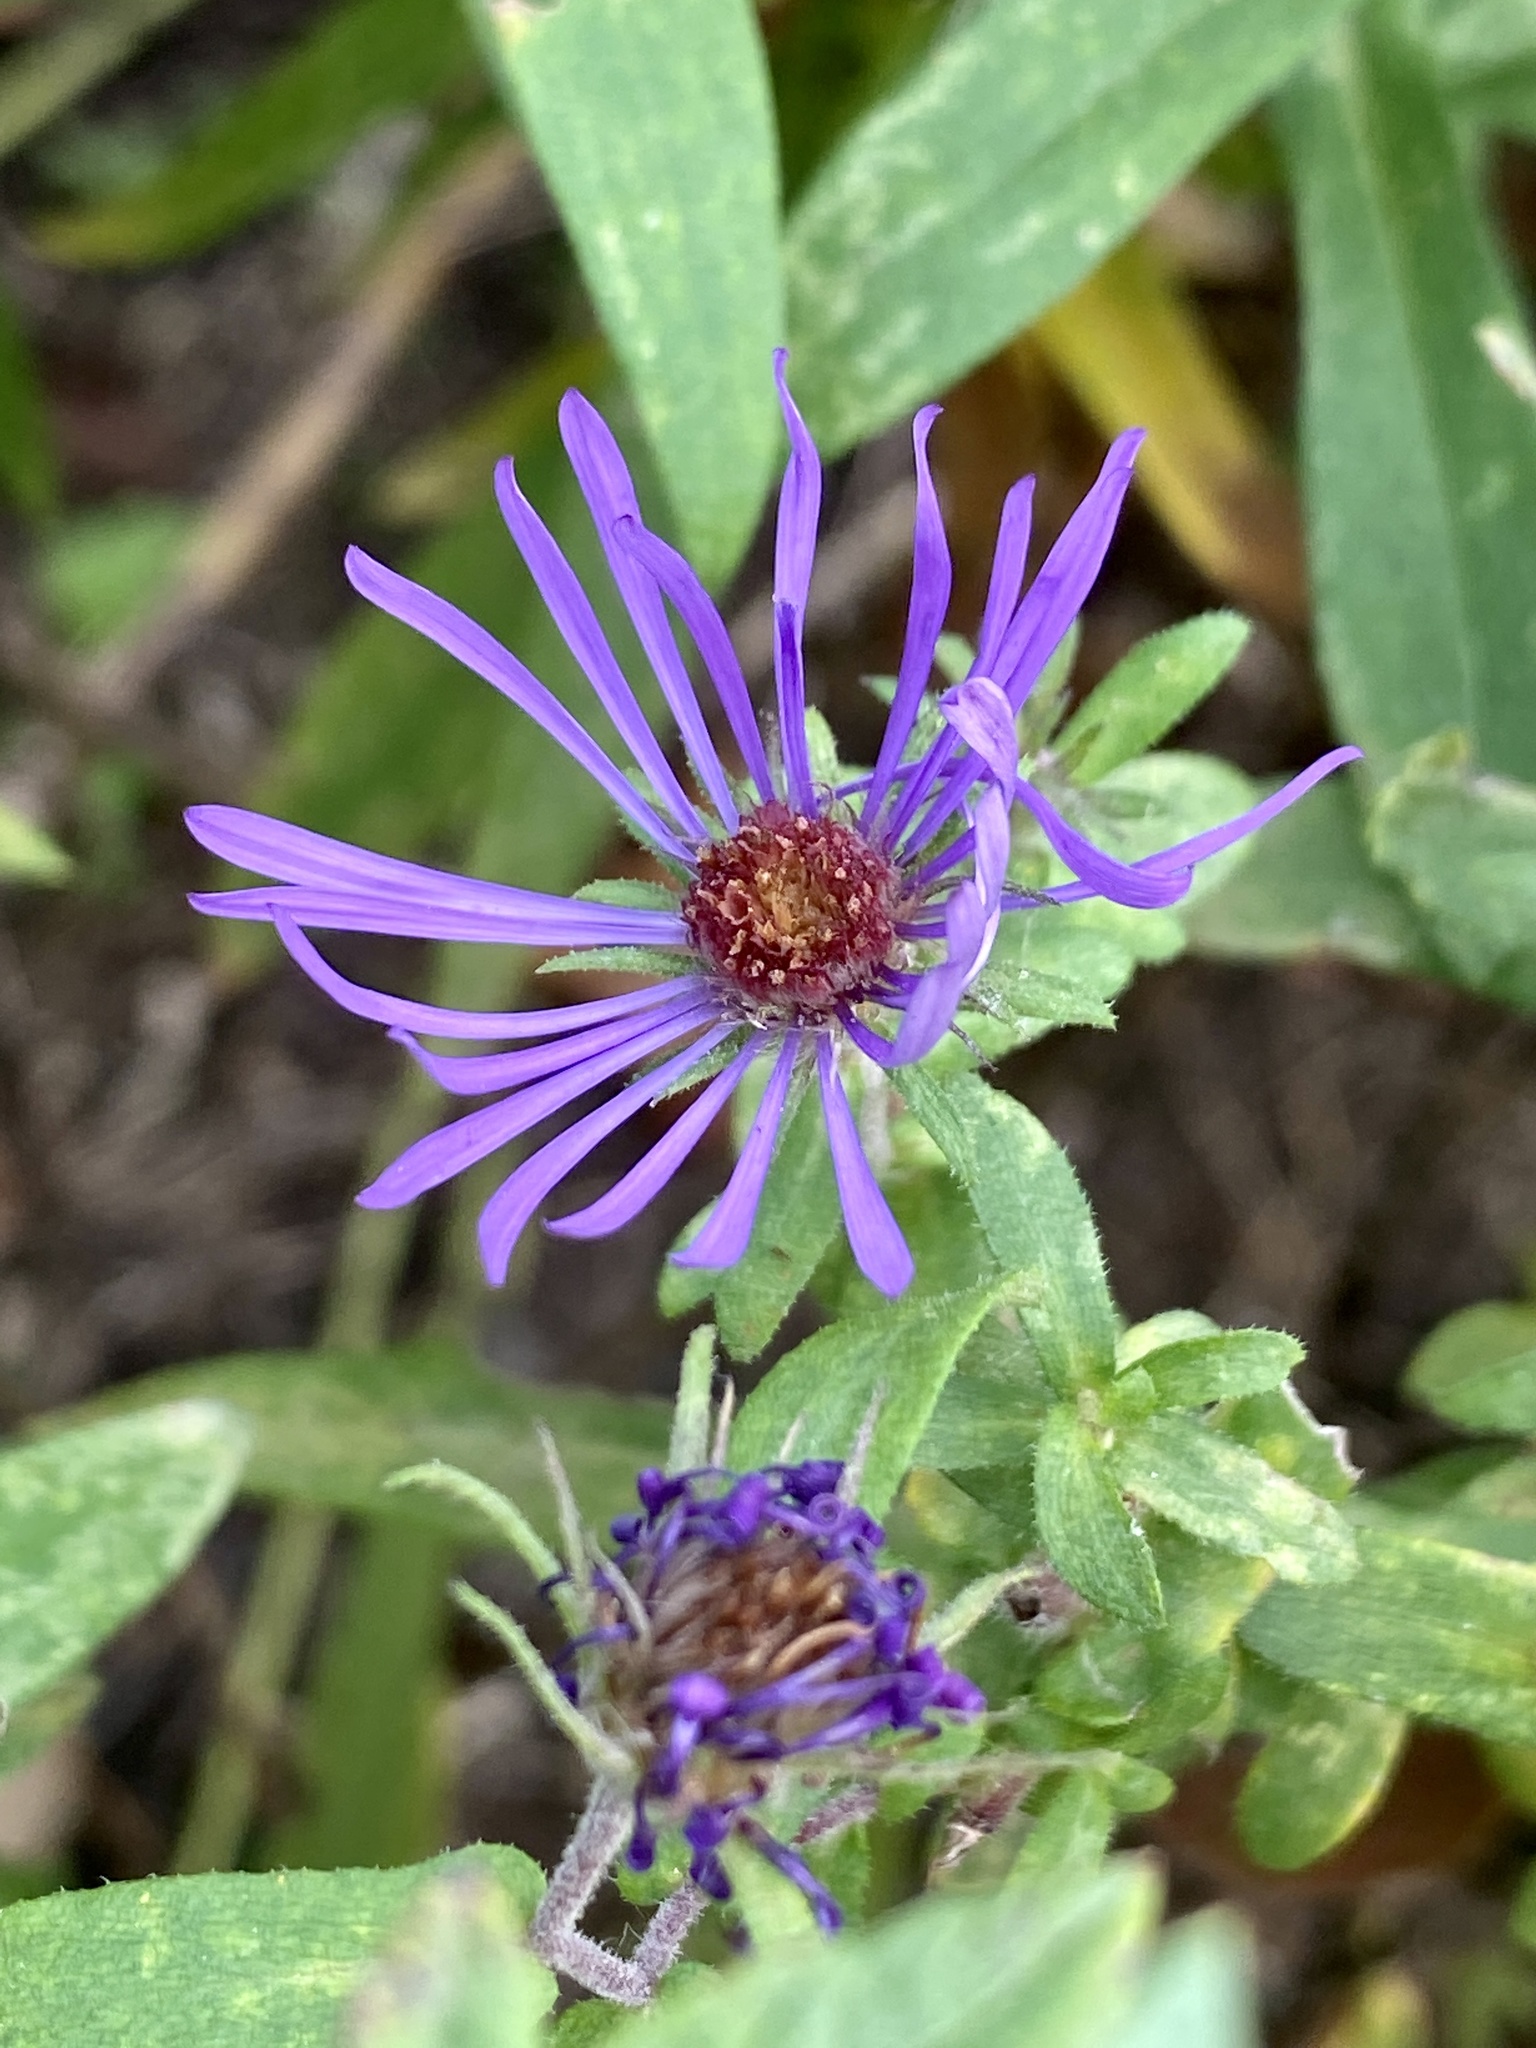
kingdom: Plantae
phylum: Tracheophyta
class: Magnoliopsida
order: Asterales
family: Asteraceae
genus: Symphyotrichum
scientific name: Symphyotrichum novae-angliae
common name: Michaelmas daisy
